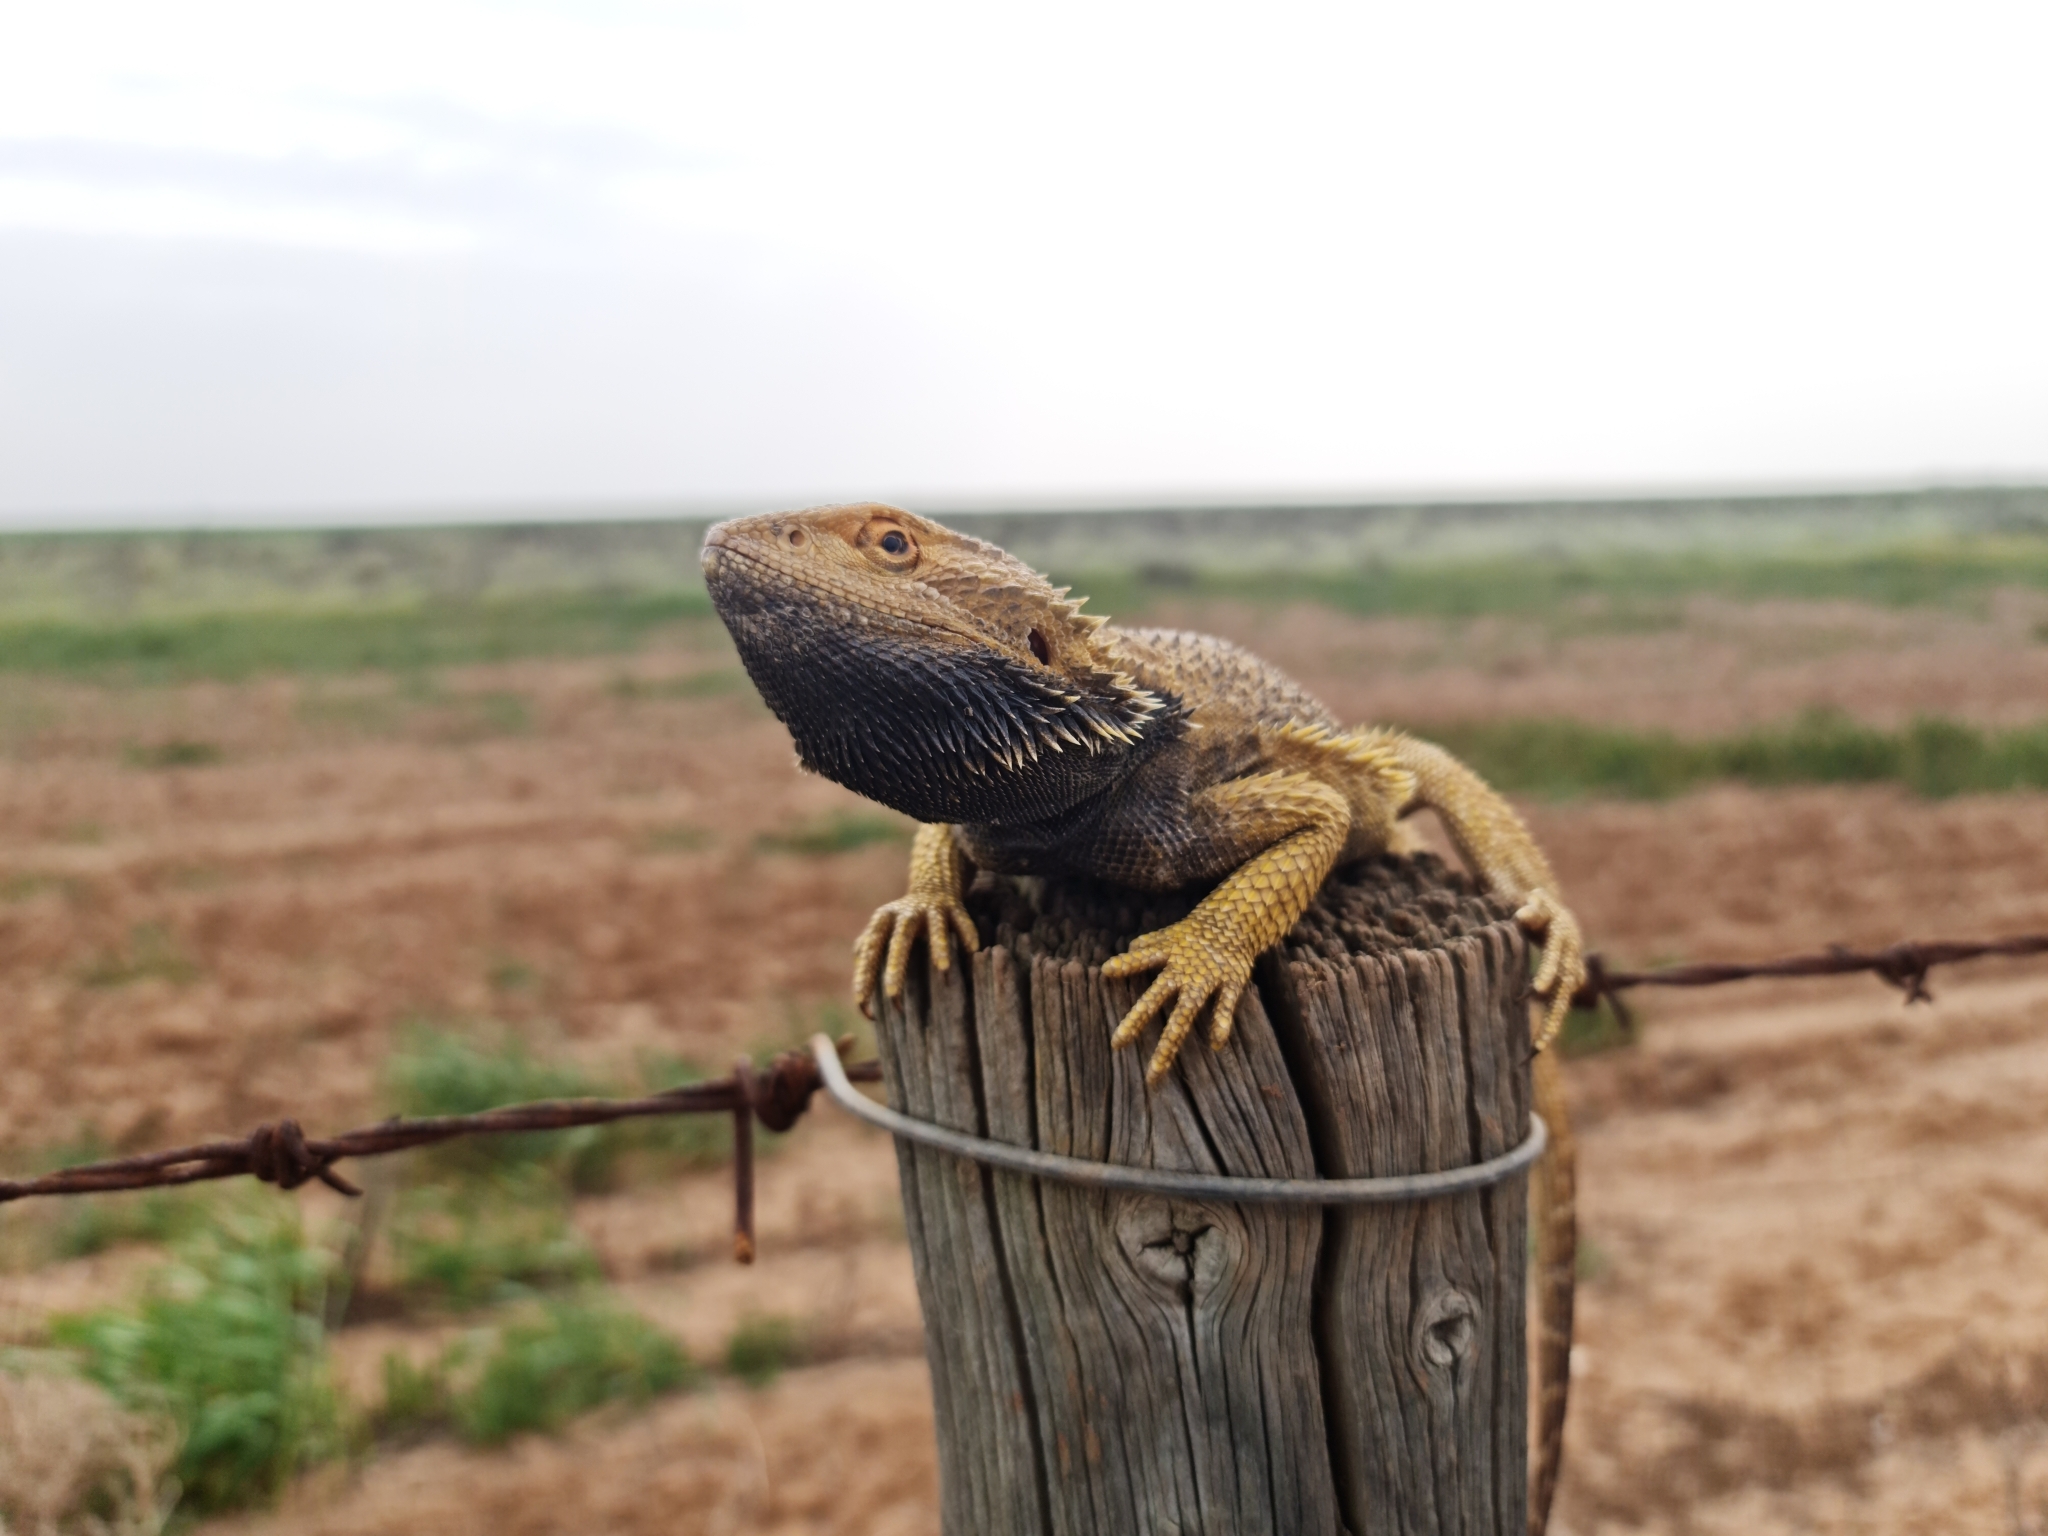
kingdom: Animalia
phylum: Chordata
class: Squamata
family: Agamidae
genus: Pogona
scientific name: Pogona vitticeps
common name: Central bearded dragon
